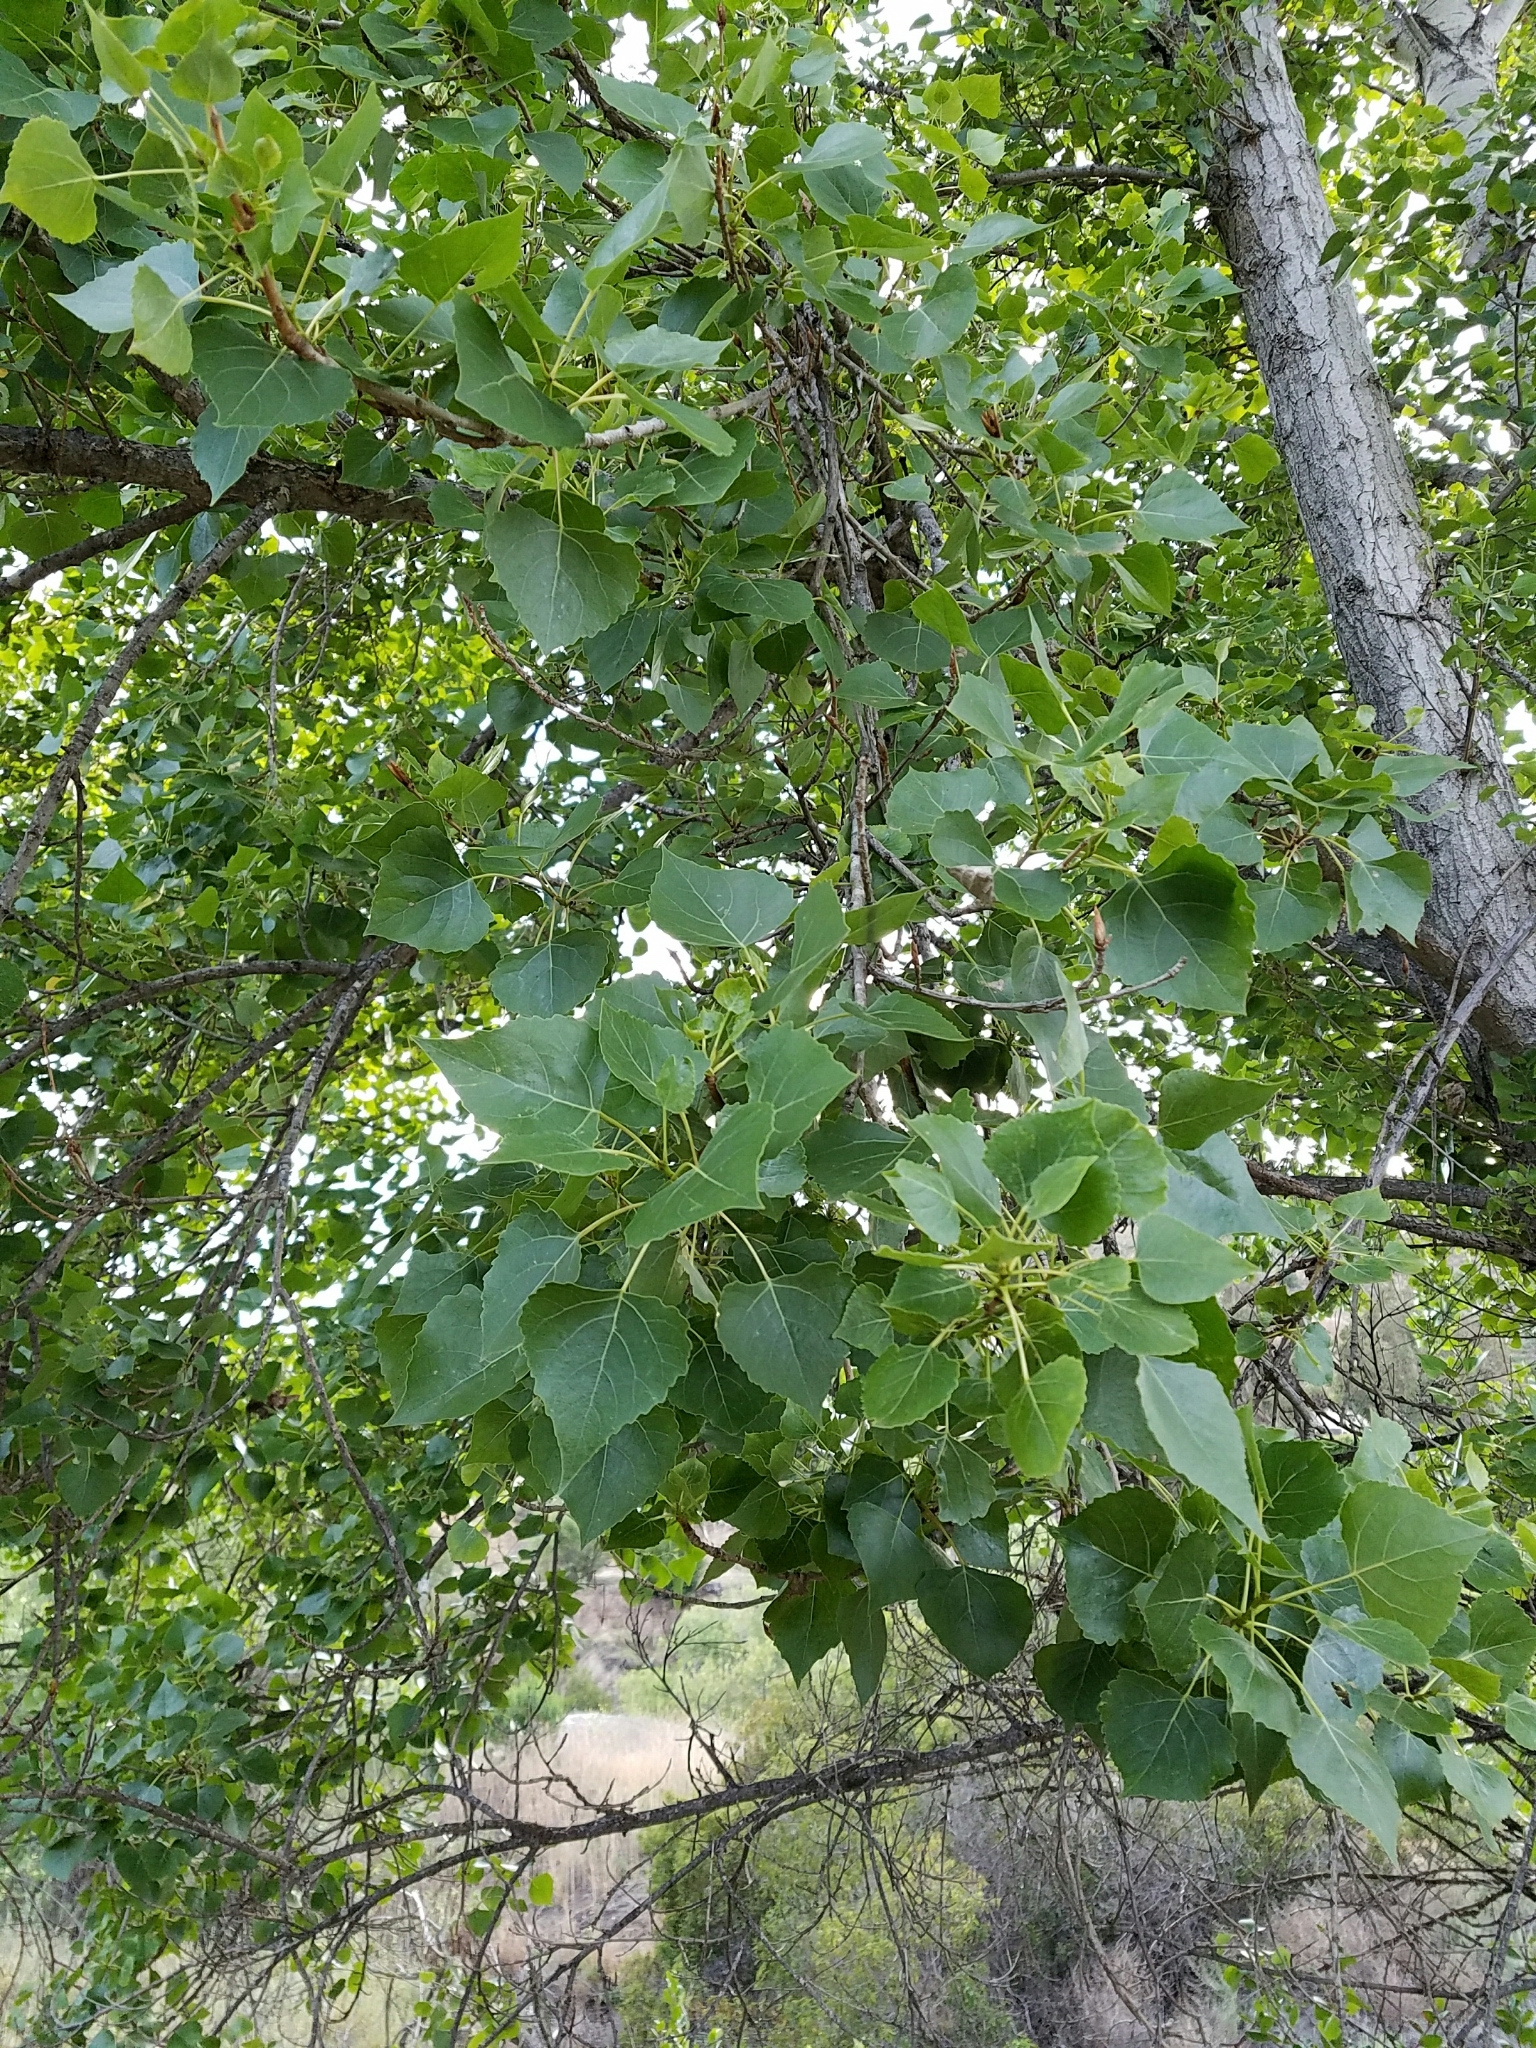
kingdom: Plantae
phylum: Tracheophyta
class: Magnoliopsida
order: Malpighiales
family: Salicaceae
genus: Populus
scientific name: Populus fremontii
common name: Fremont's cottonwood
